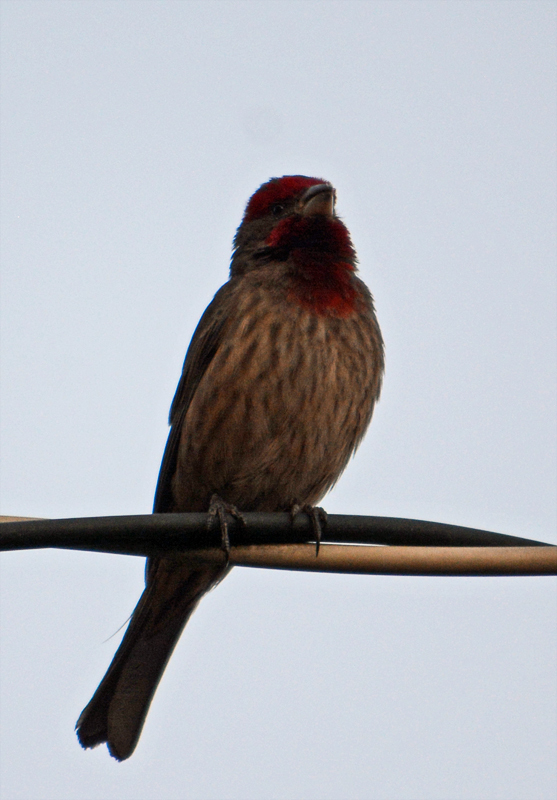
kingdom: Animalia
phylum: Chordata
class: Aves
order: Passeriformes
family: Fringillidae
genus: Haemorhous
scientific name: Haemorhous mexicanus
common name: House finch
